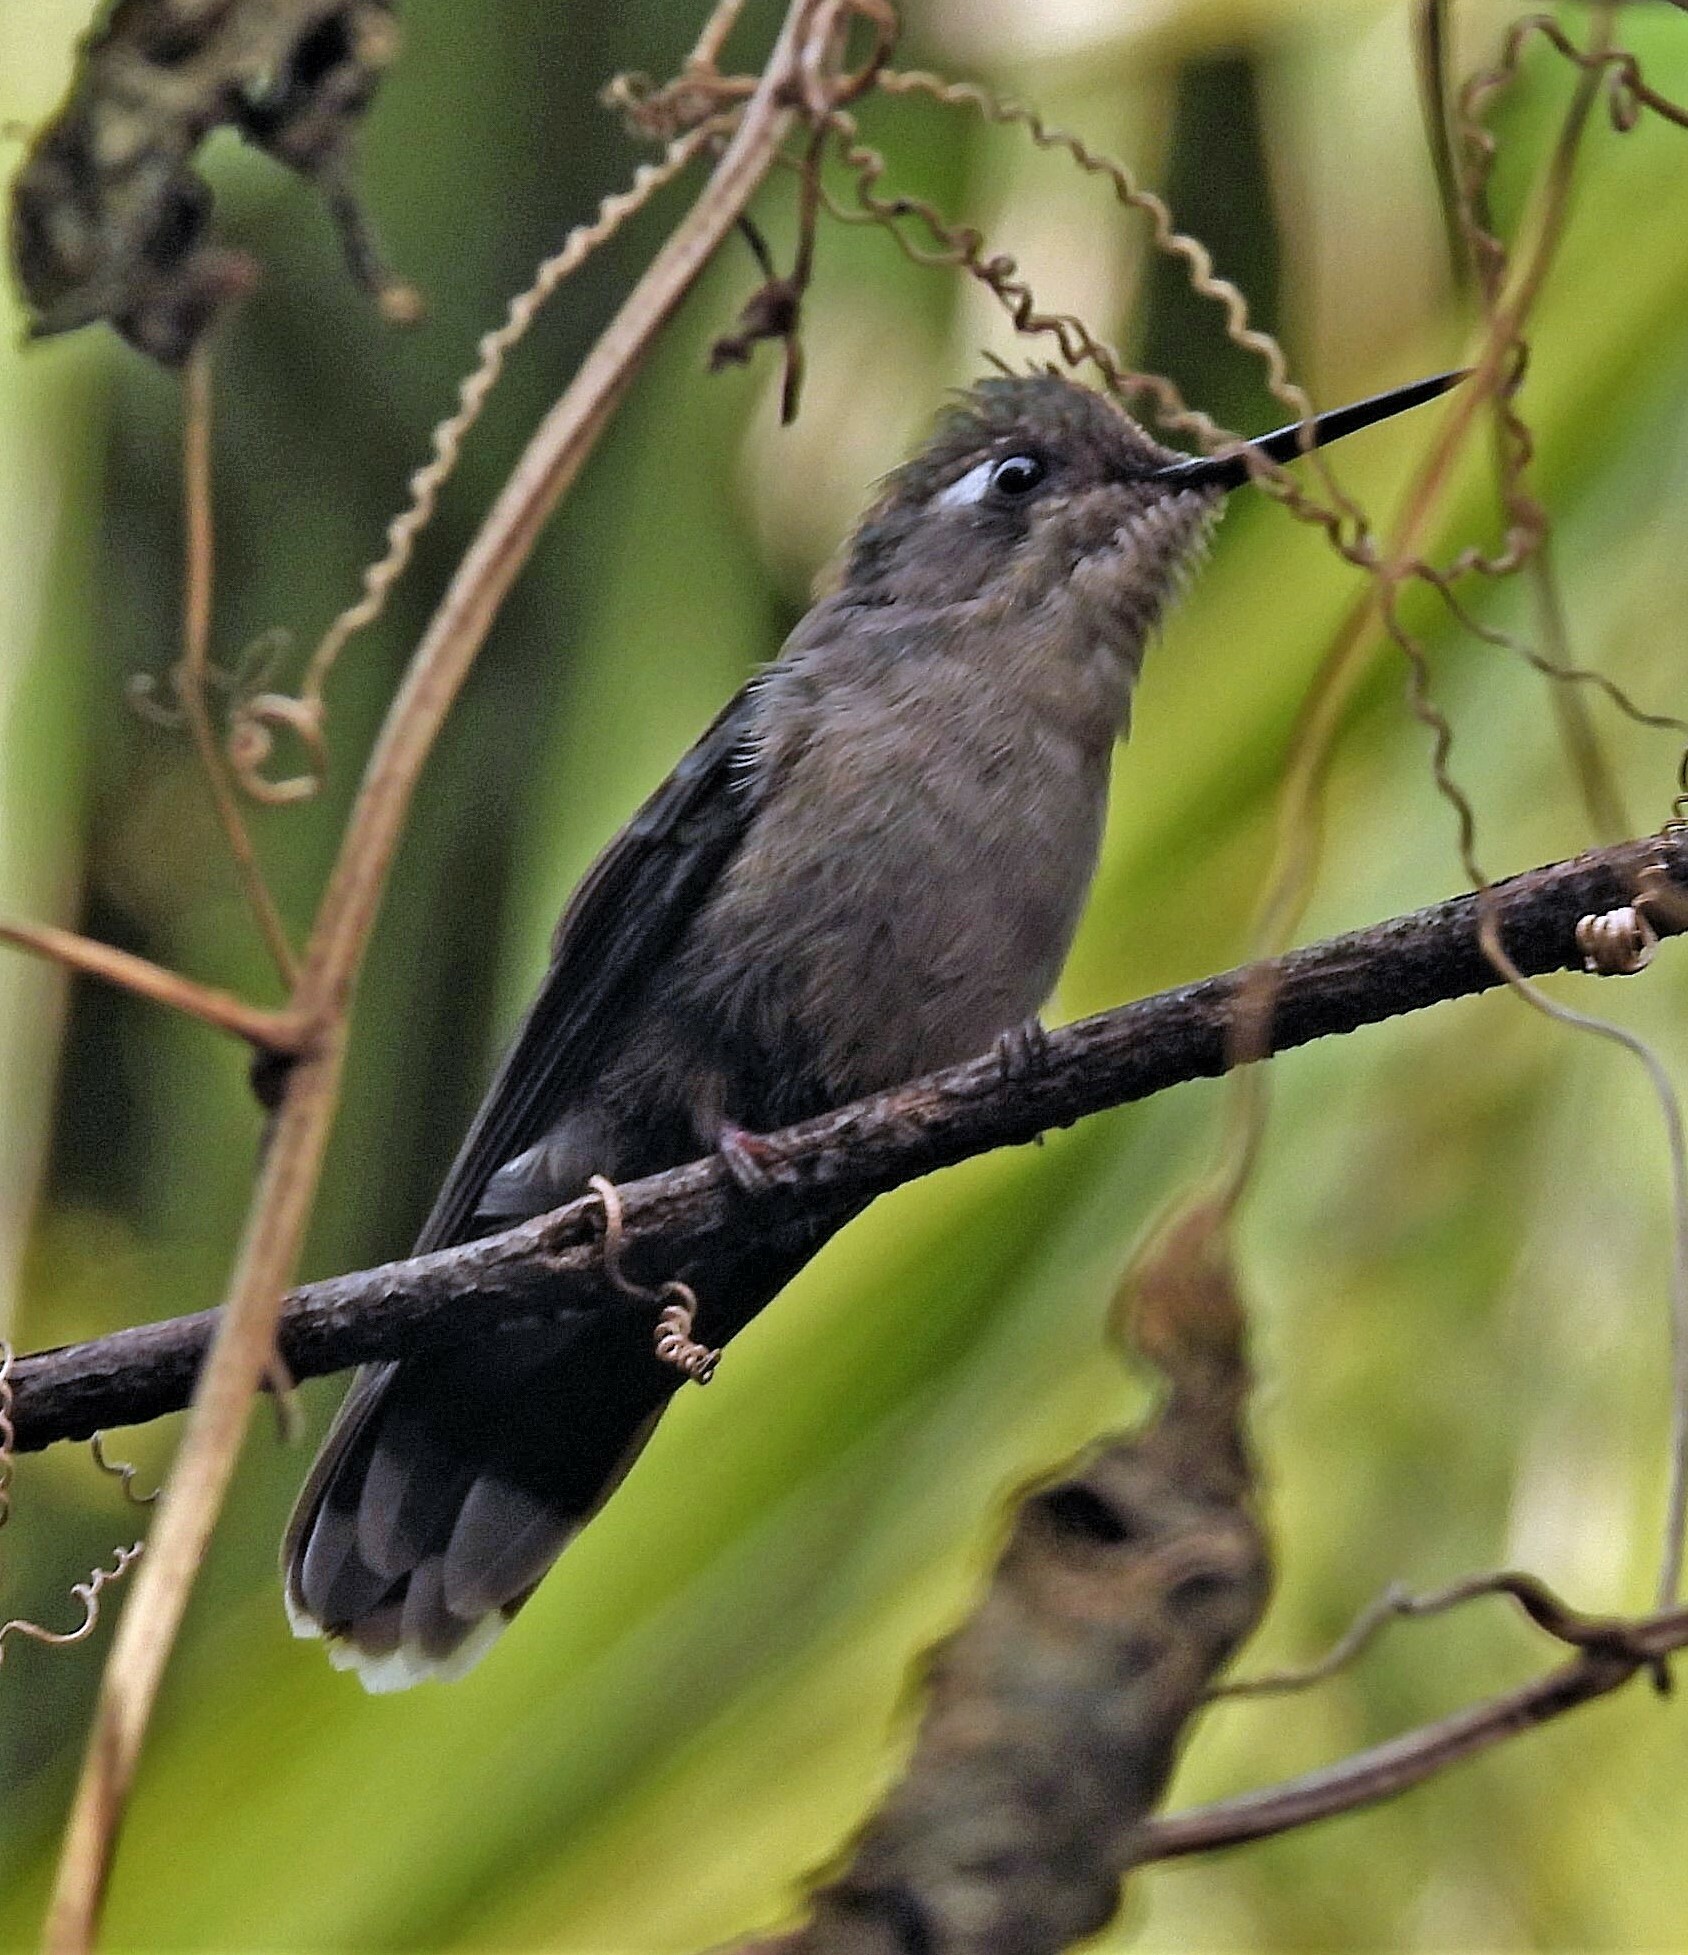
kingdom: Animalia
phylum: Chordata
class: Aves
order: Apodiformes
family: Trochilidae
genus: Stephanoxis
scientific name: Stephanoxis loddigesii
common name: Purple-crowned plovercrest
